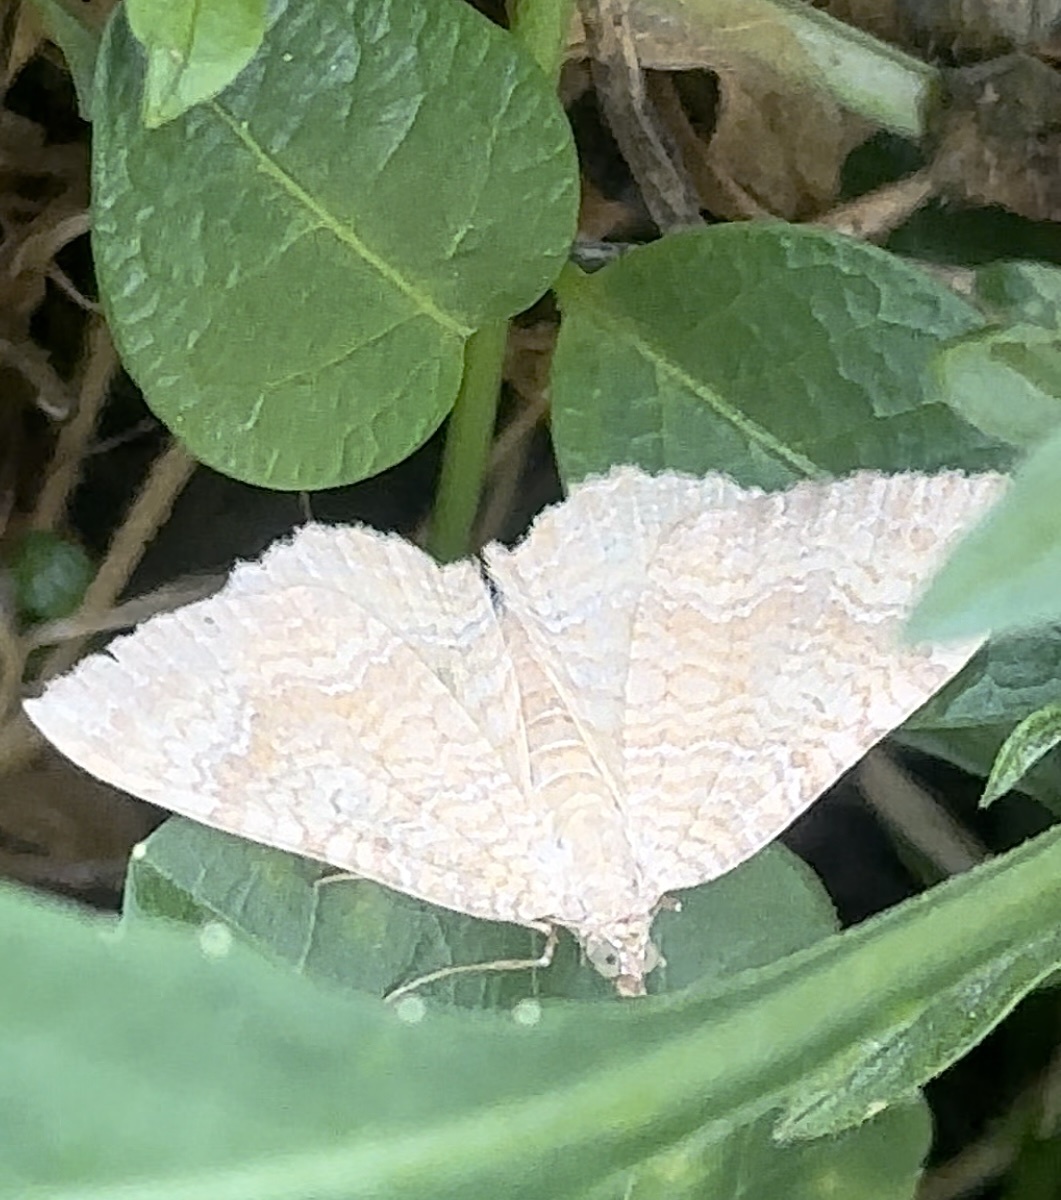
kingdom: Animalia
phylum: Arthropoda
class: Insecta
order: Lepidoptera
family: Geometridae
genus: Camptogramma
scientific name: Camptogramma bilineata
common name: Yellow shell
